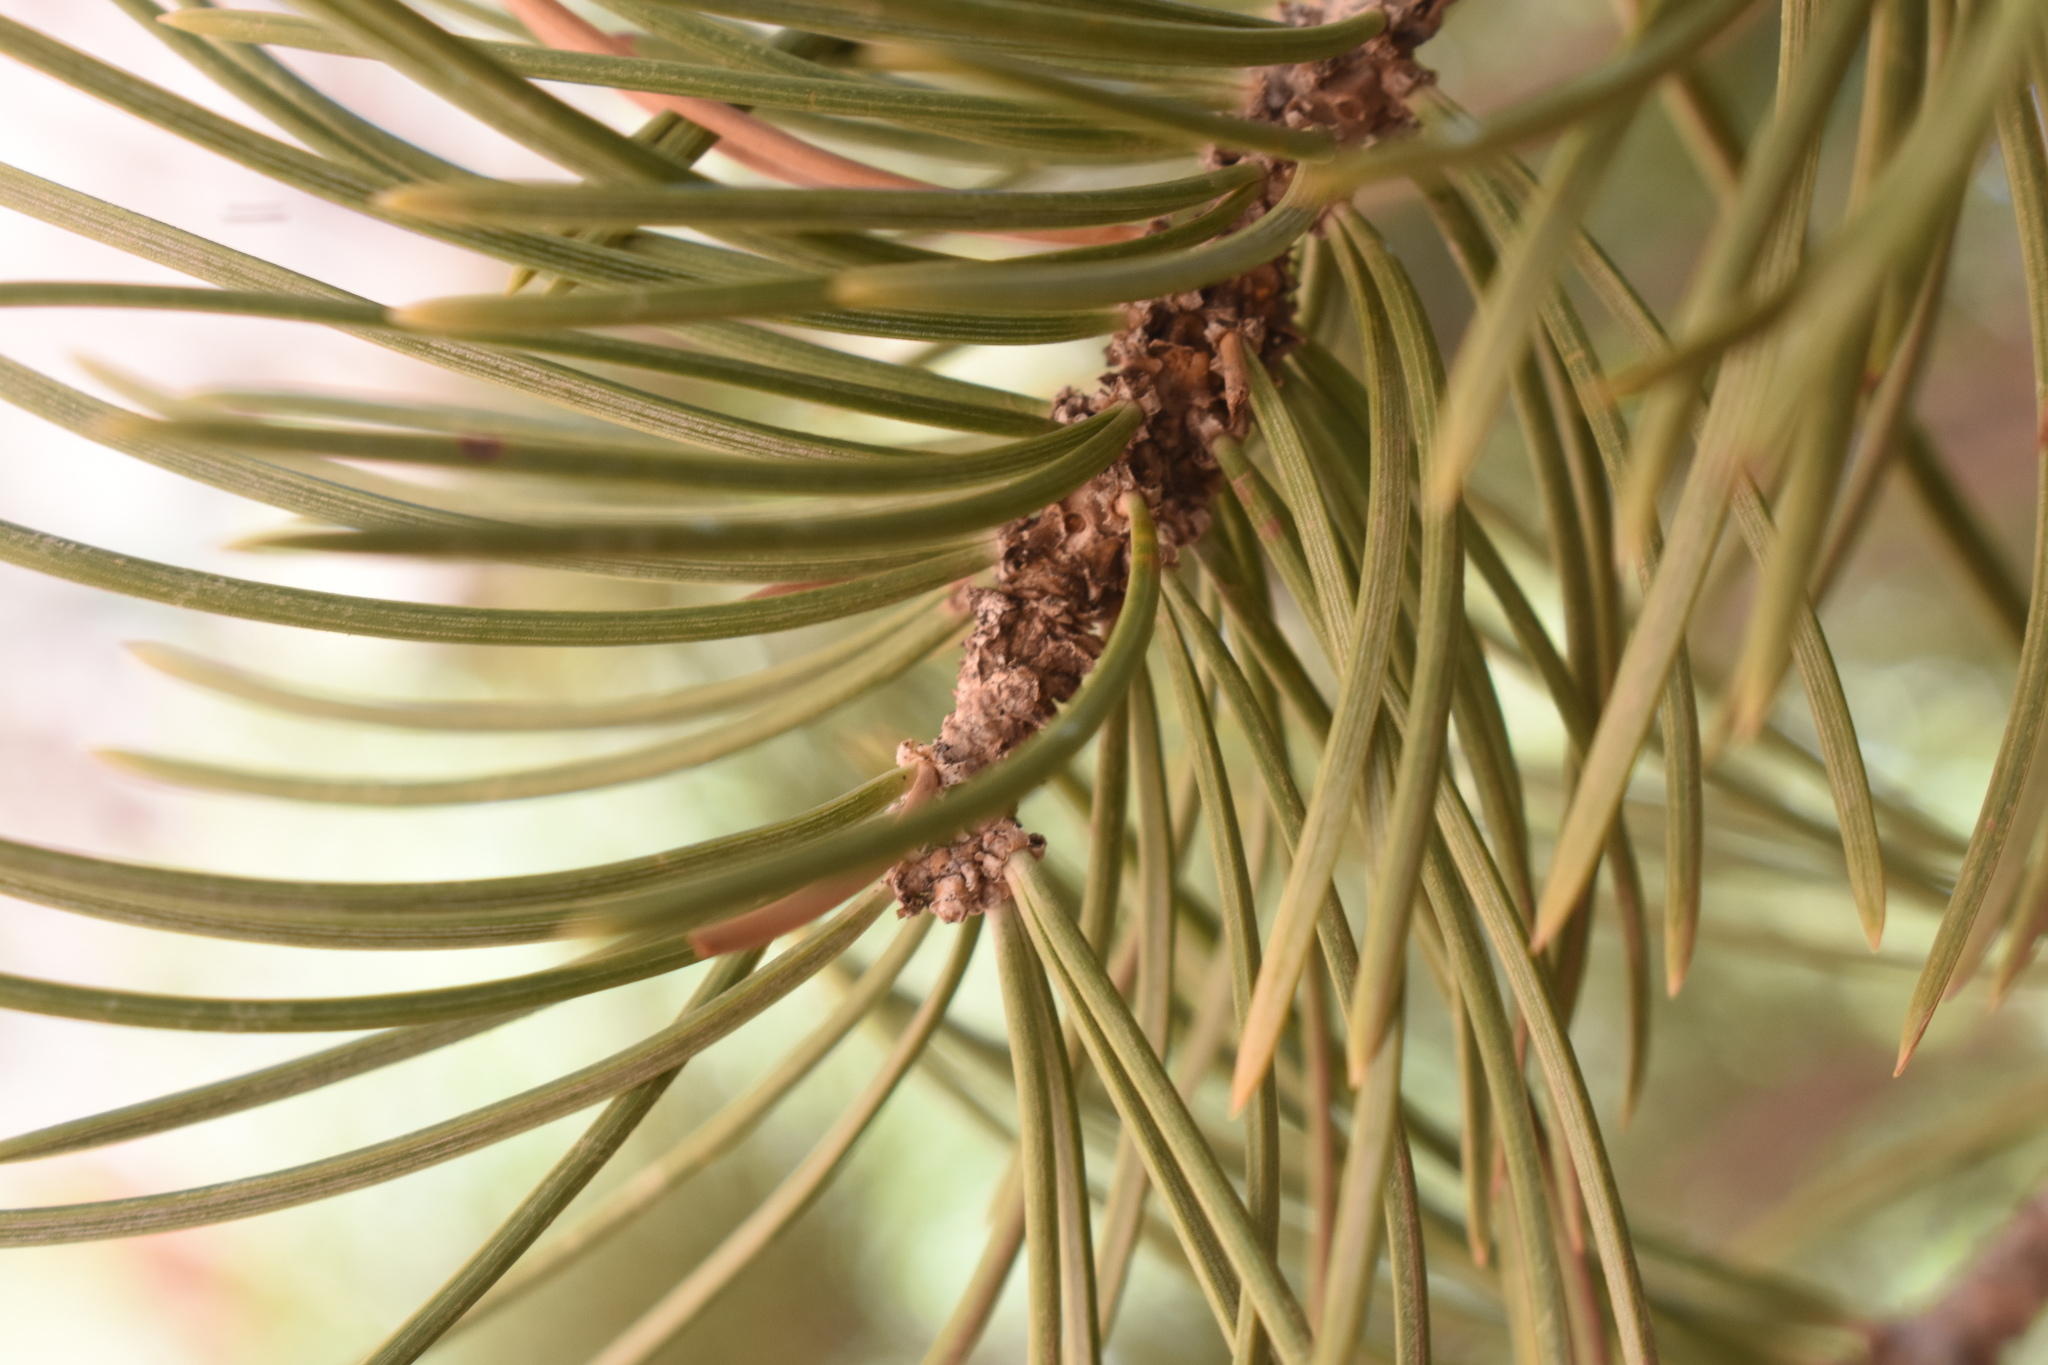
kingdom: Plantae
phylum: Tracheophyta
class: Pinopsida
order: Pinales
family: Pinaceae
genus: Pinus
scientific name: Pinus edulis
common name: Colorado pinyon
